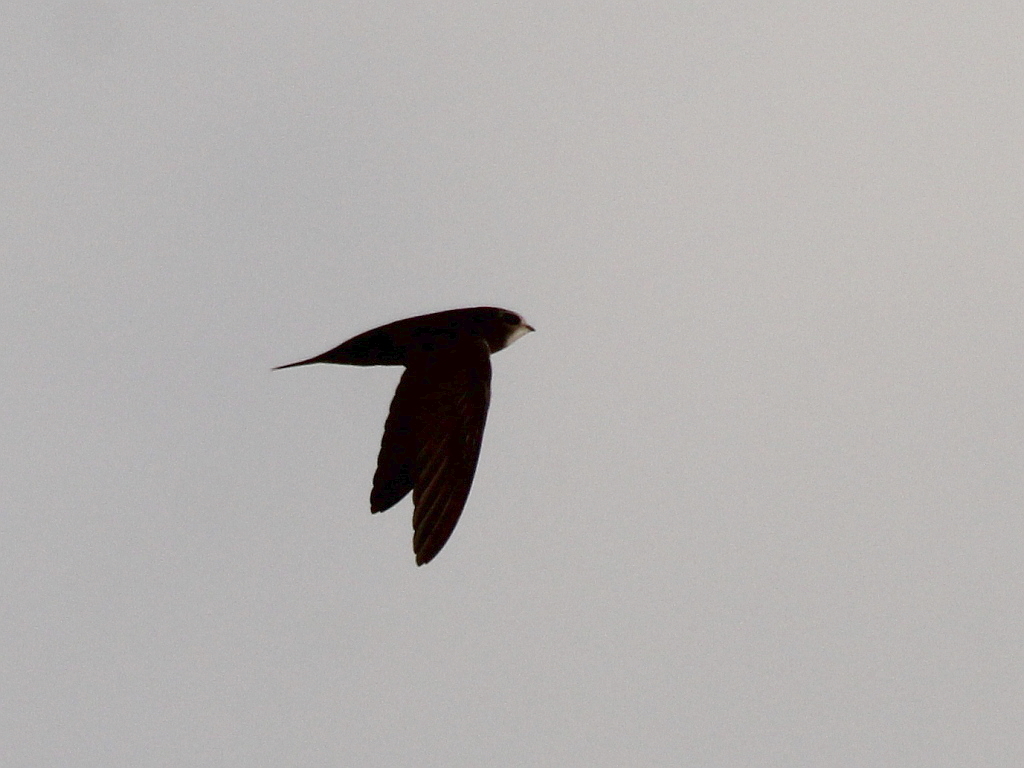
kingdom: Animalia
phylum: Chordata
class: Aves
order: Apodiformes
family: Apodidae
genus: Apus
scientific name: Apus apus
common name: Common swift
